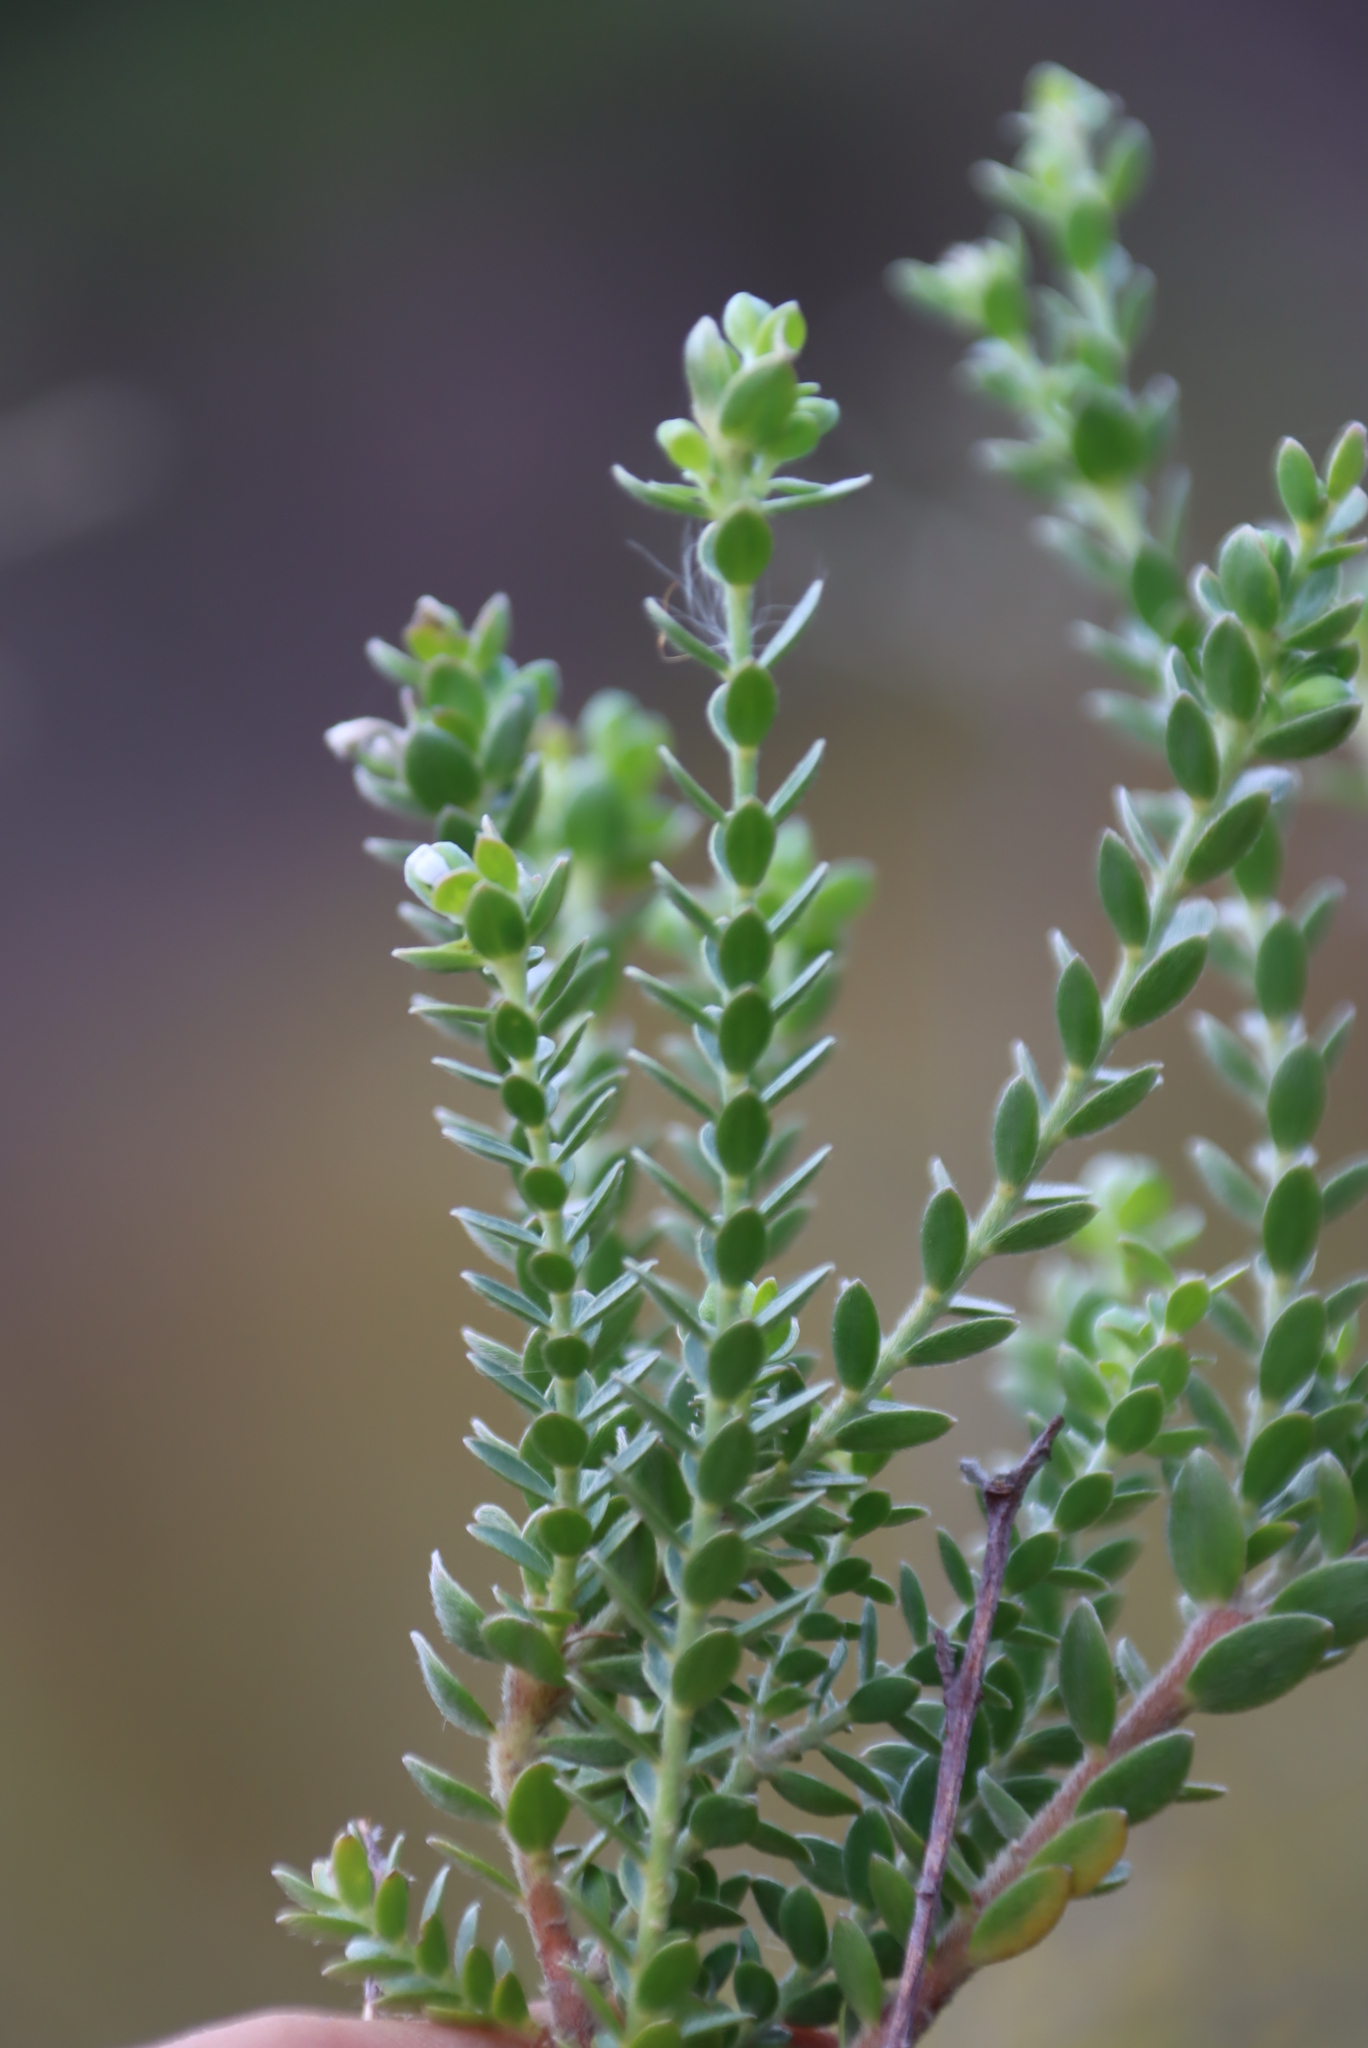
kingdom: Plantae
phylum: Tracheophyta
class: Magnoliopsida
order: Malvales
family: Thymelaeaceae
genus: Gnidia
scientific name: Gnidia sericea
